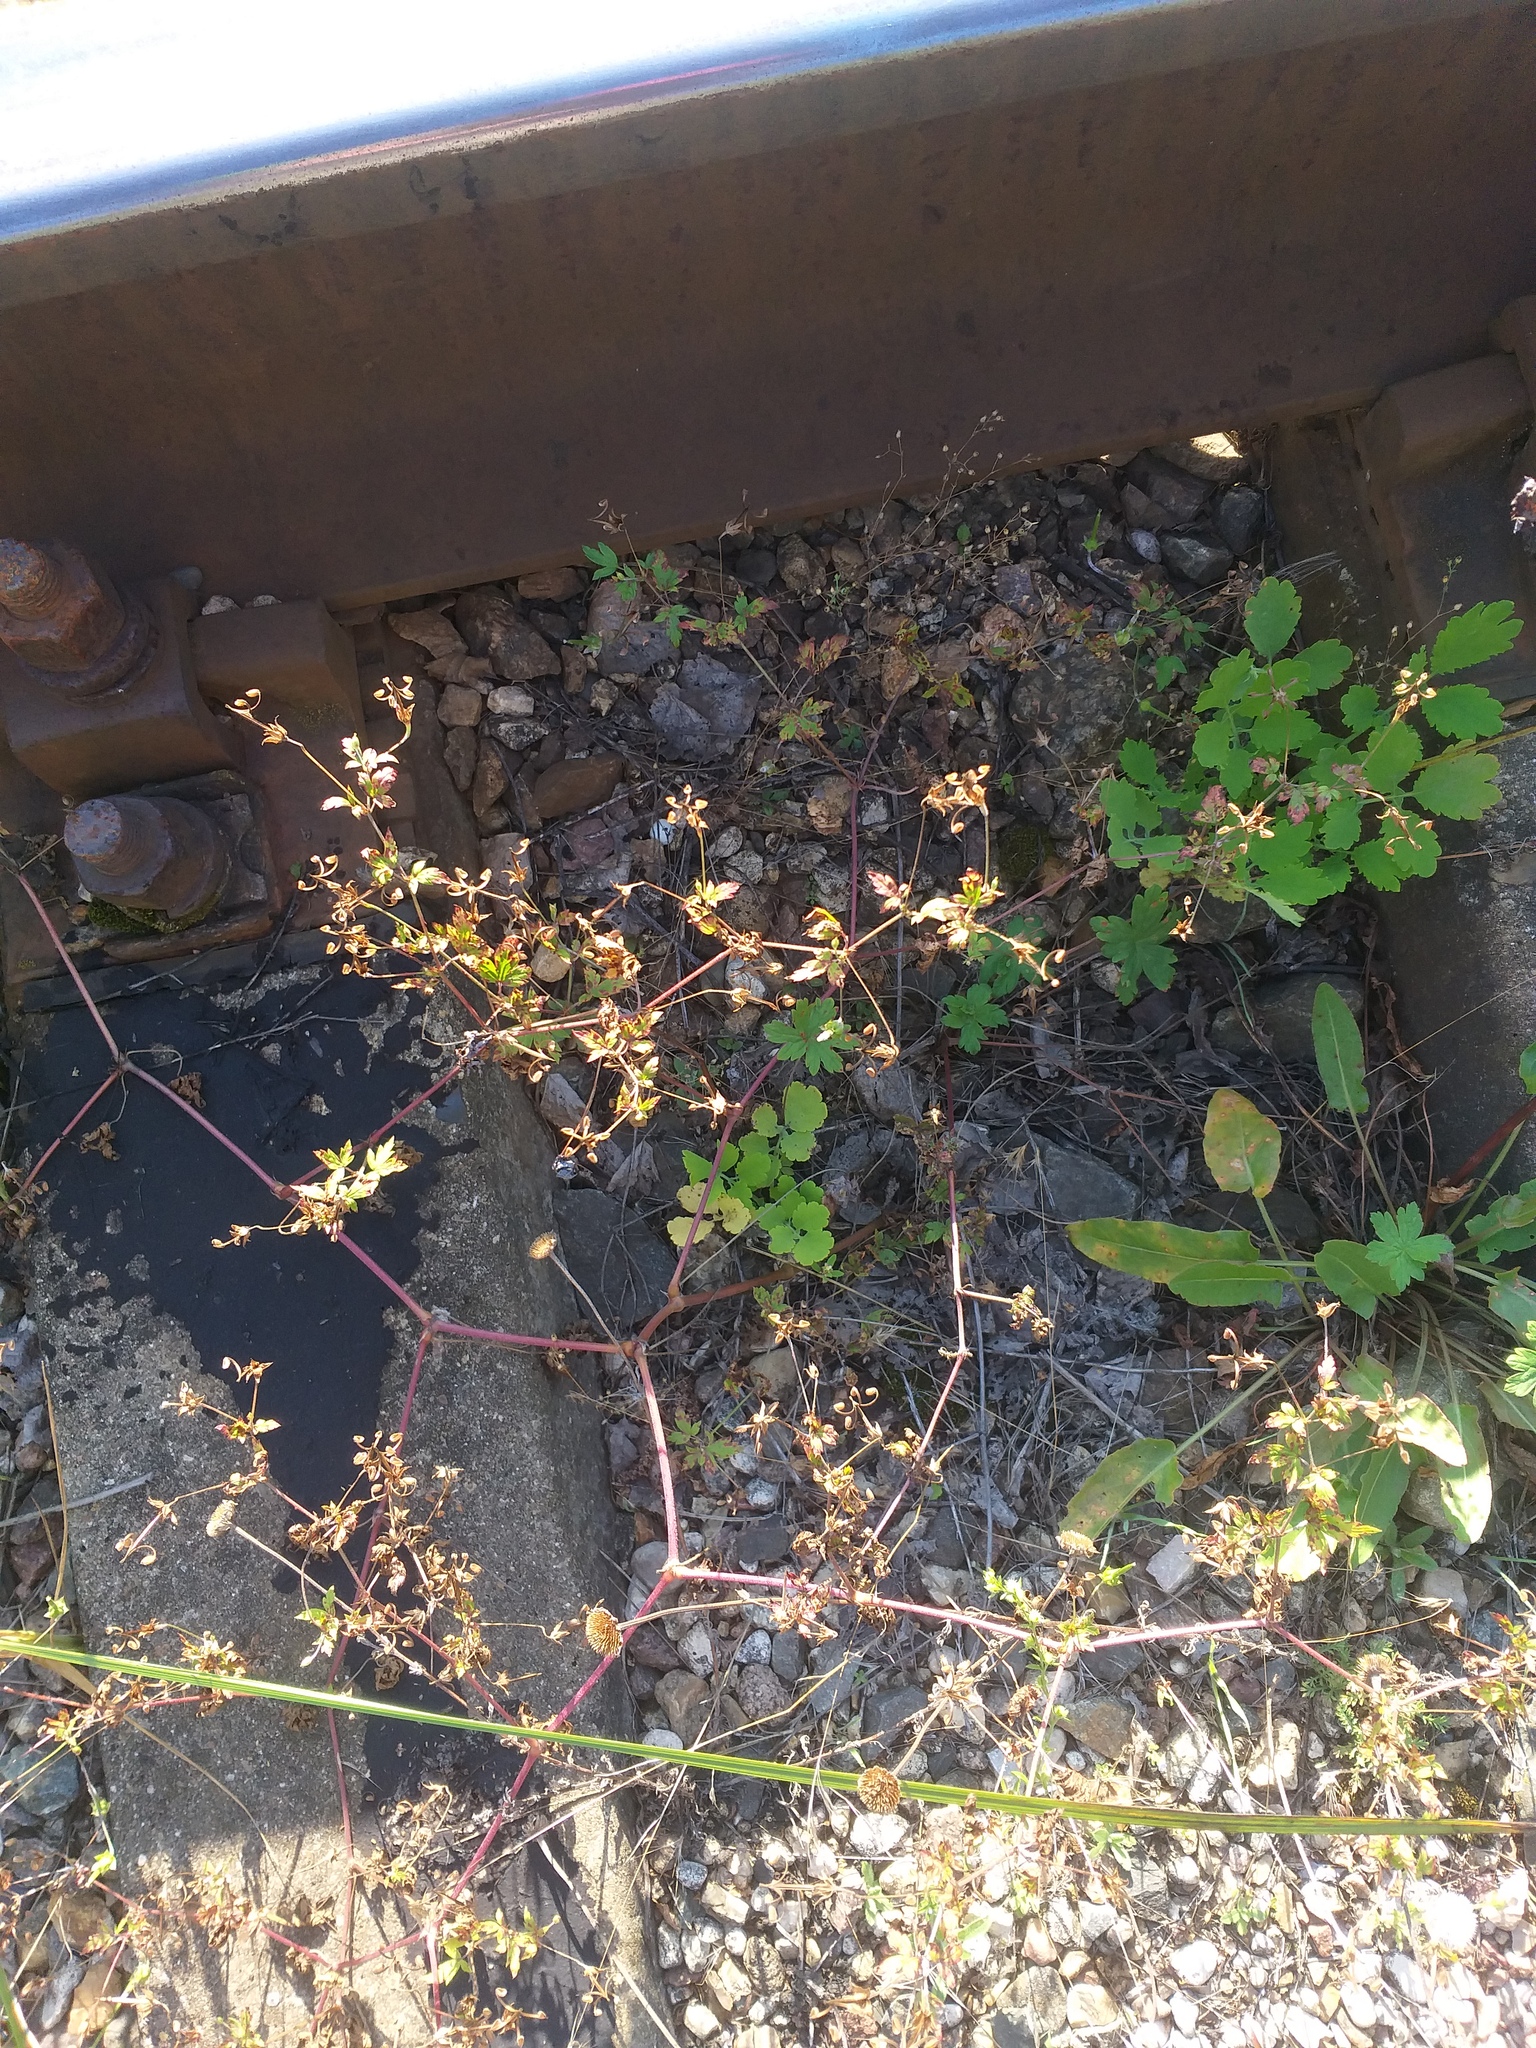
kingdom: Plantae
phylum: Tracheophyta
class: Magnoliopsida
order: Geraniales
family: Geraniaceae
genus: Geranium
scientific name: Geranium sibiricum
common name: Siberian crane's-bill
